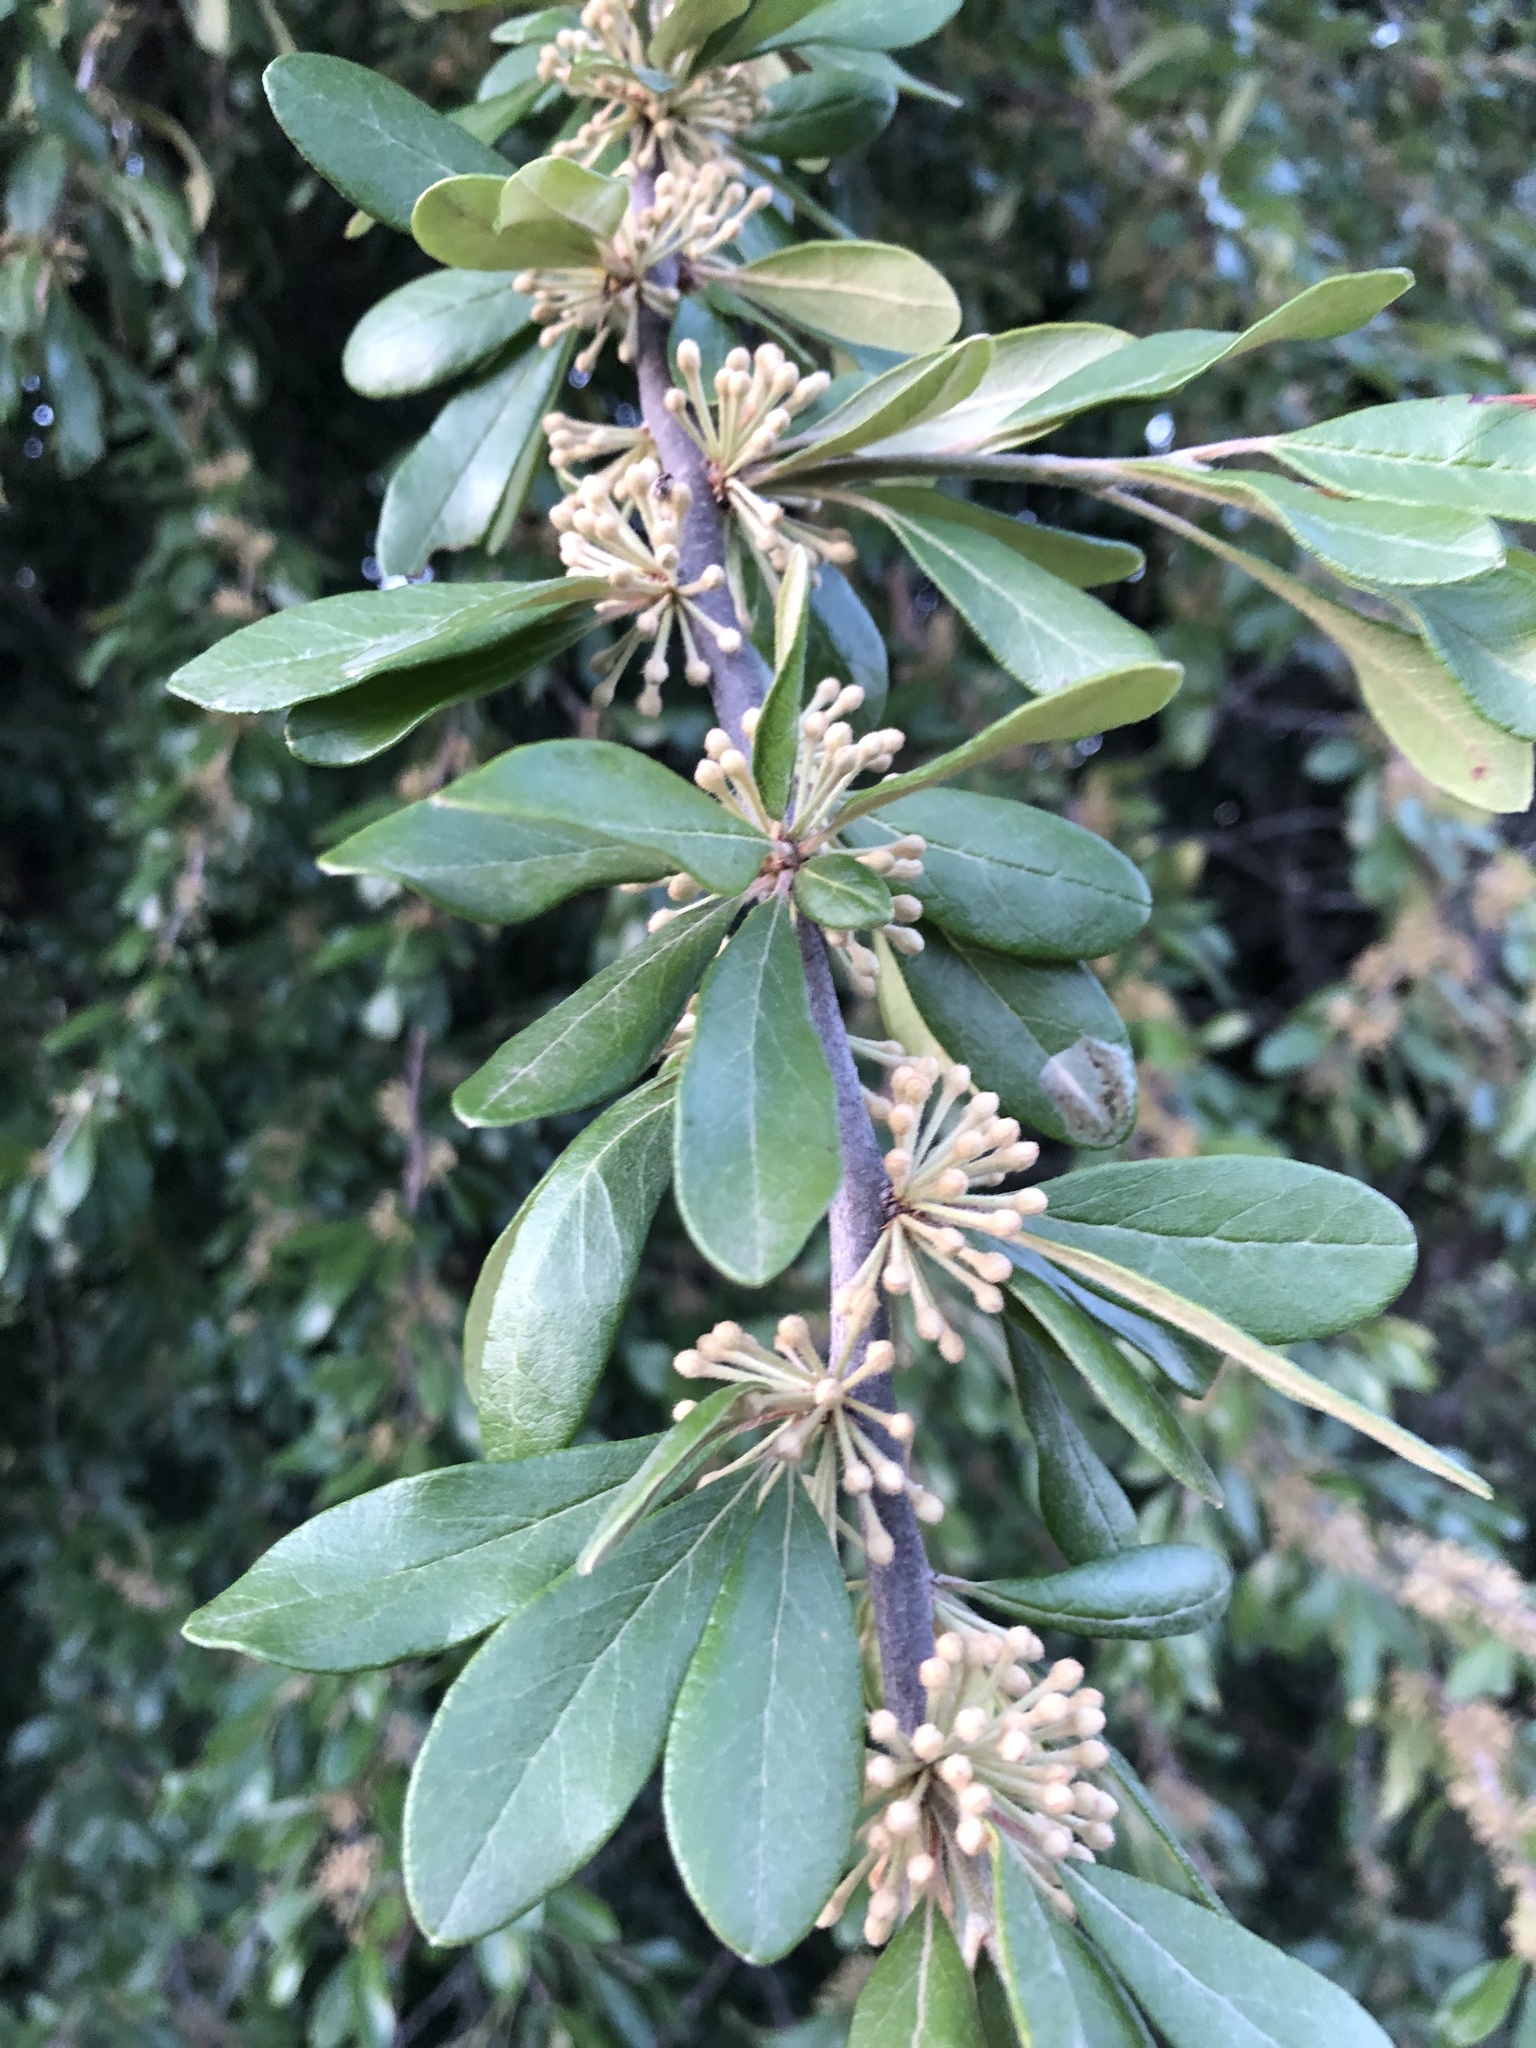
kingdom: Plantae
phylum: Tracheophyta
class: Magnoliopsida
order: Ericales
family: Sapotaceae
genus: Sideroxylon
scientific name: Sideroxylon lanuginosum
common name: Chittamwood
